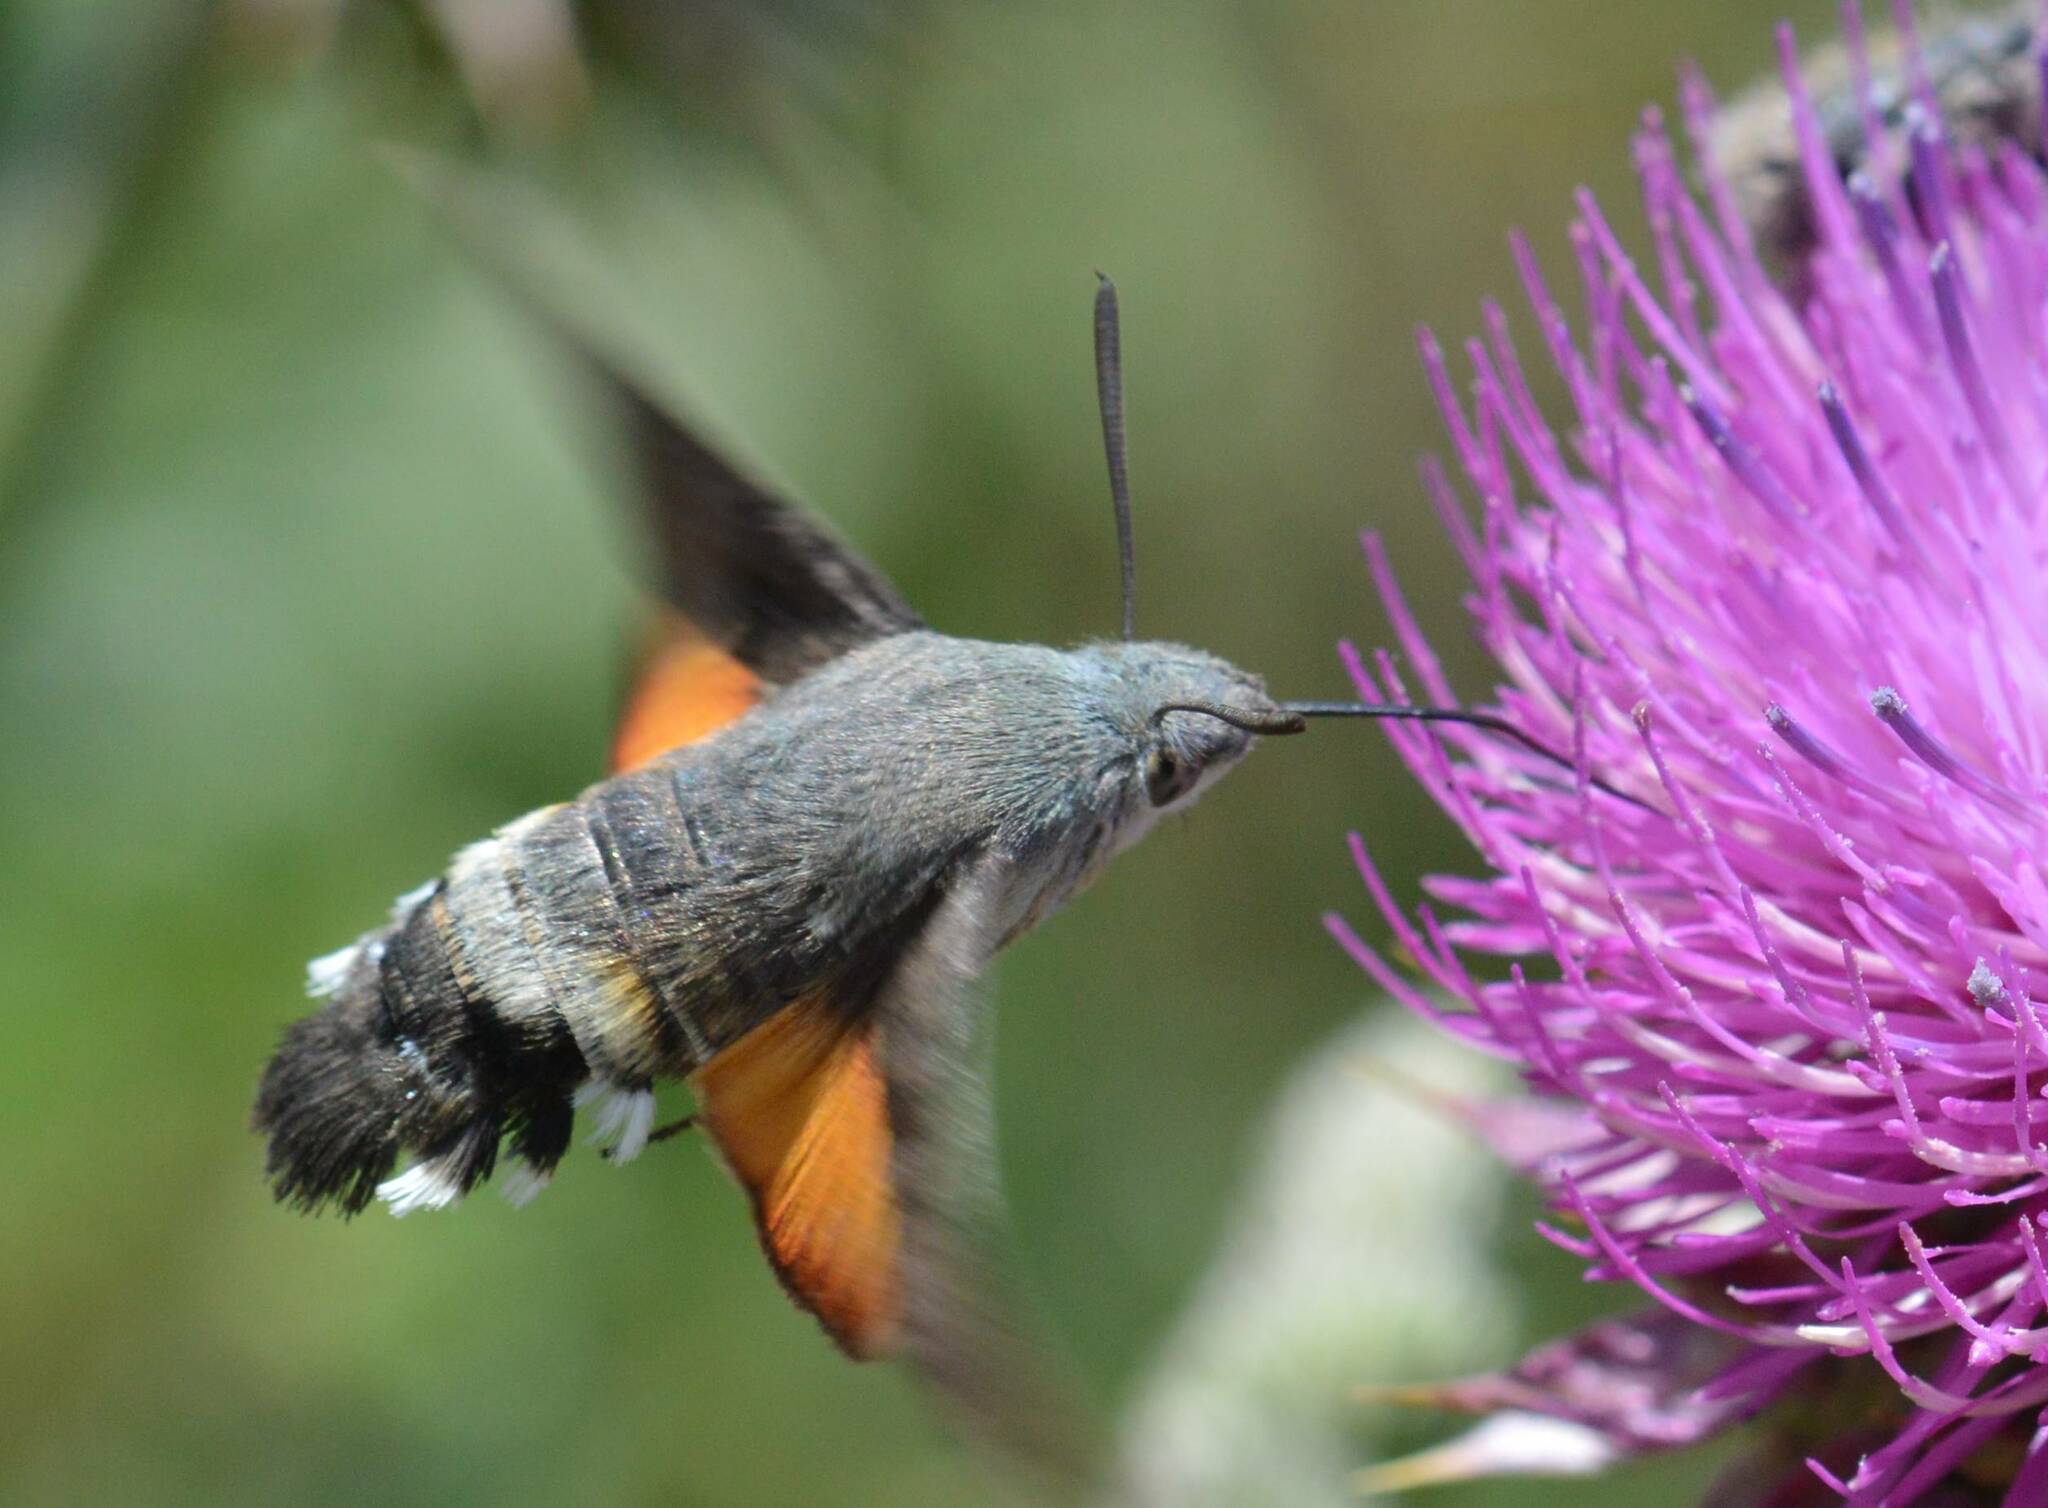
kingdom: Animalia
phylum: Arthropoda
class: Insecta
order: Lepidoptera
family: Sphingidae
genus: Macroglossum
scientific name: Macroglossum stellatarum
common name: Humming-bird hawk-moth
